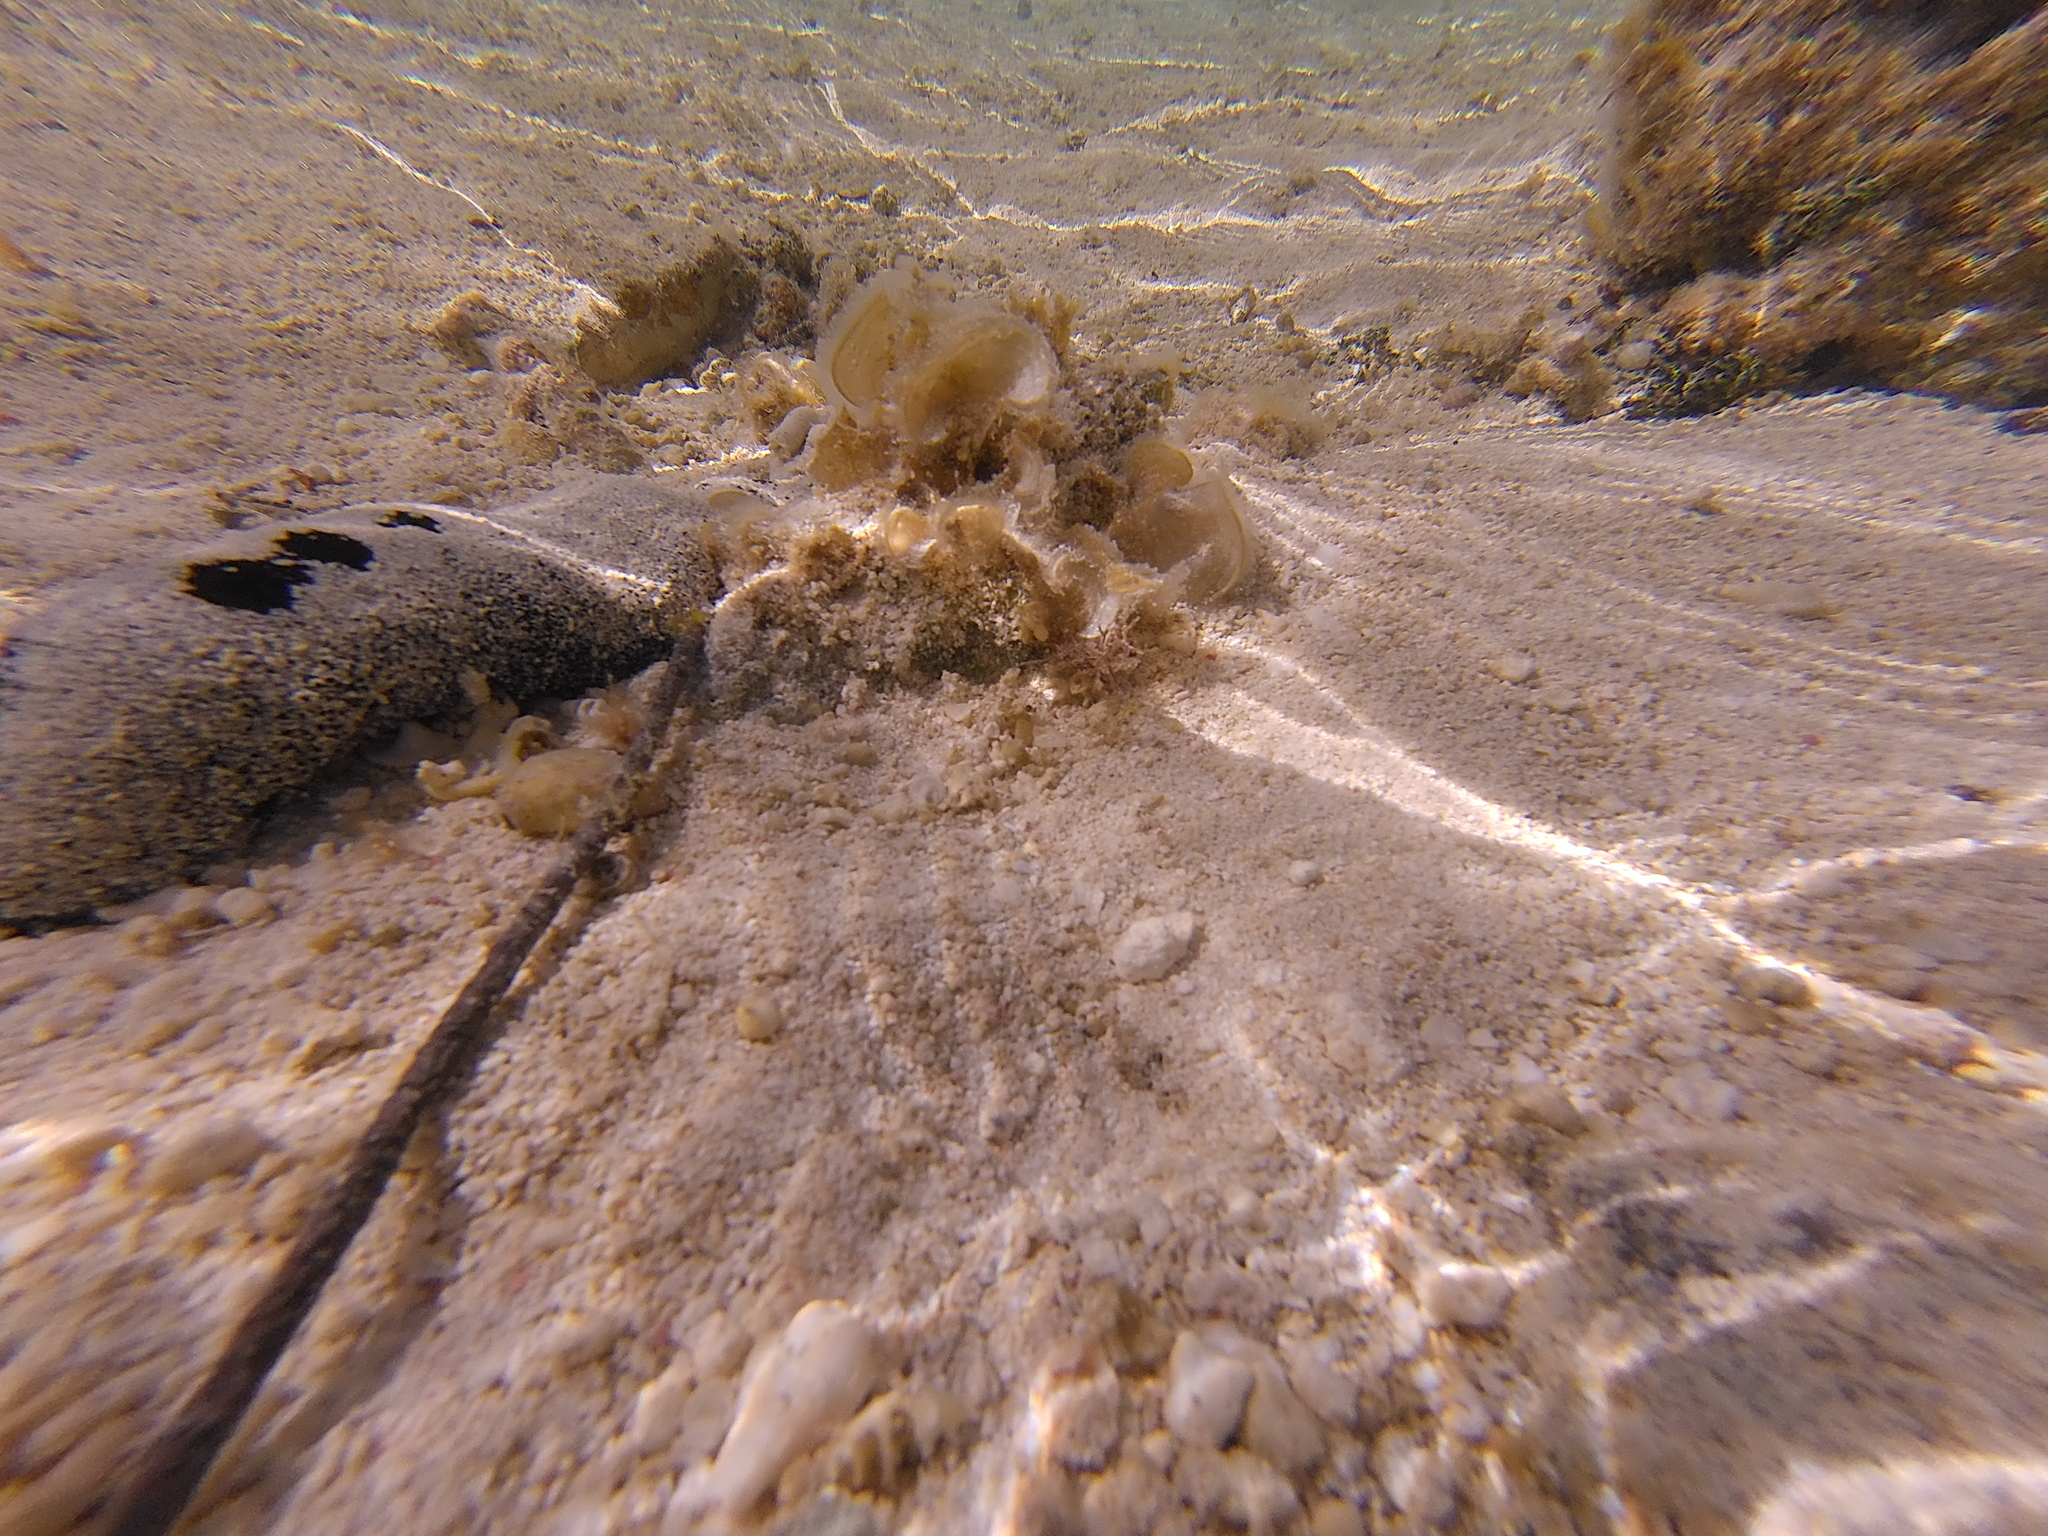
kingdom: Animalia
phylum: Echinodermata
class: Holothuroidea
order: Holothuriida
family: Holothuriidae
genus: Holothuria
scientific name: Holothuria atra
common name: Lollyfish
